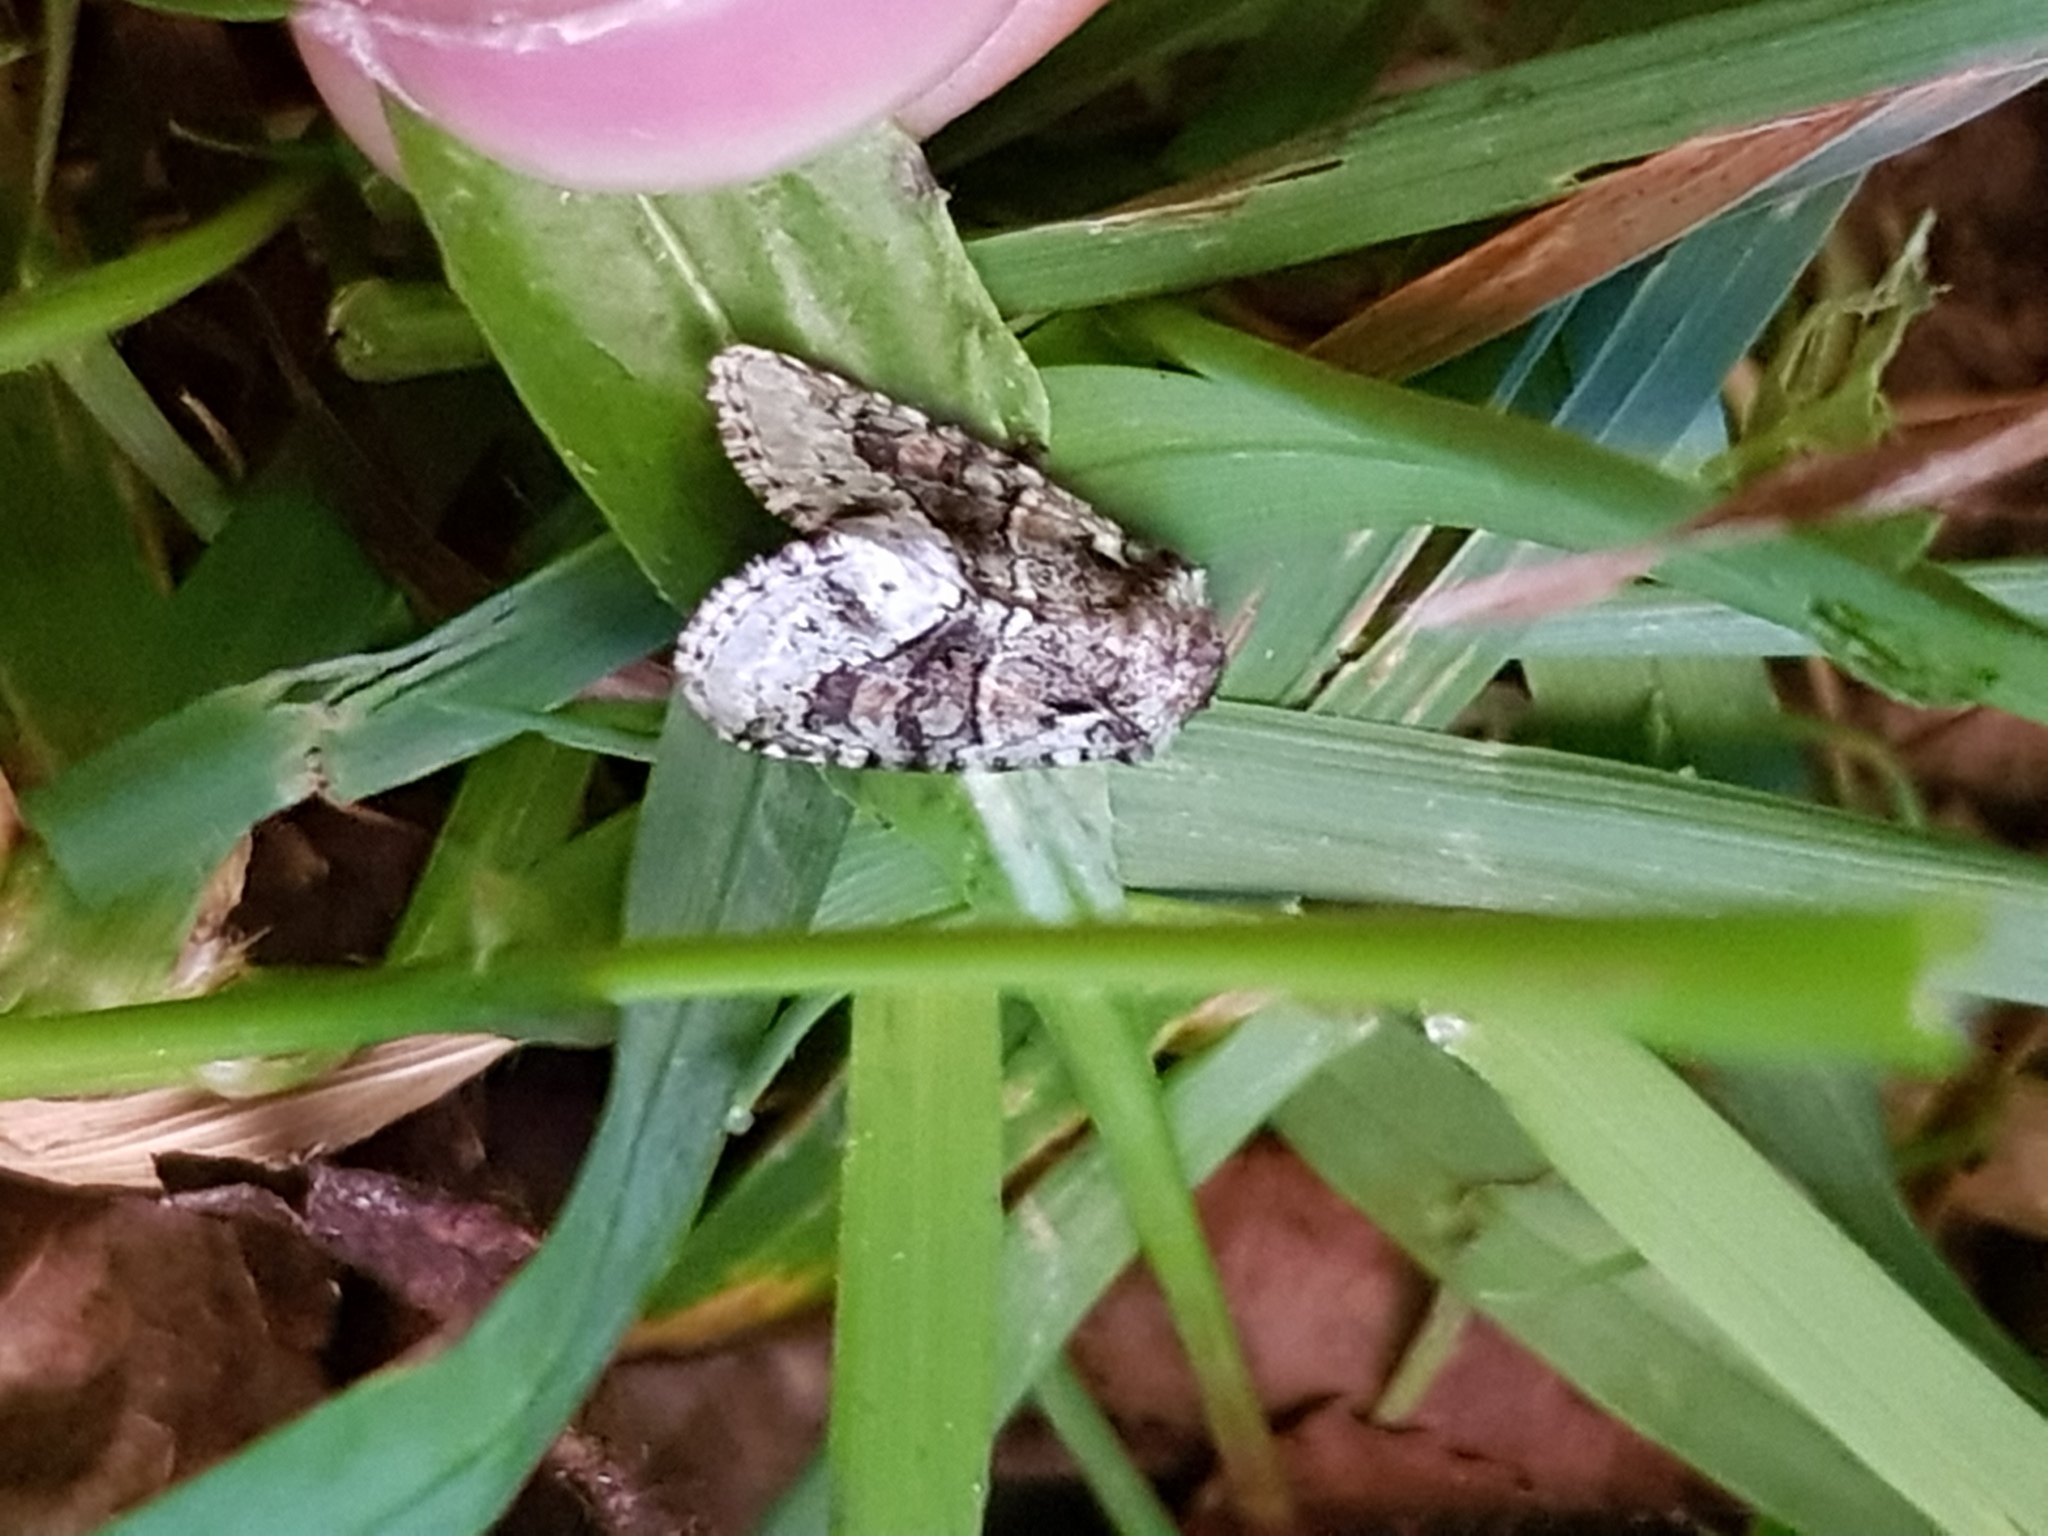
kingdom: Animalia
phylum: Arthropoda
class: Insecta
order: Lepidoptera
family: Noctuidae
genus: Lacinipolia
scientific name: Lacinipolia explicata
